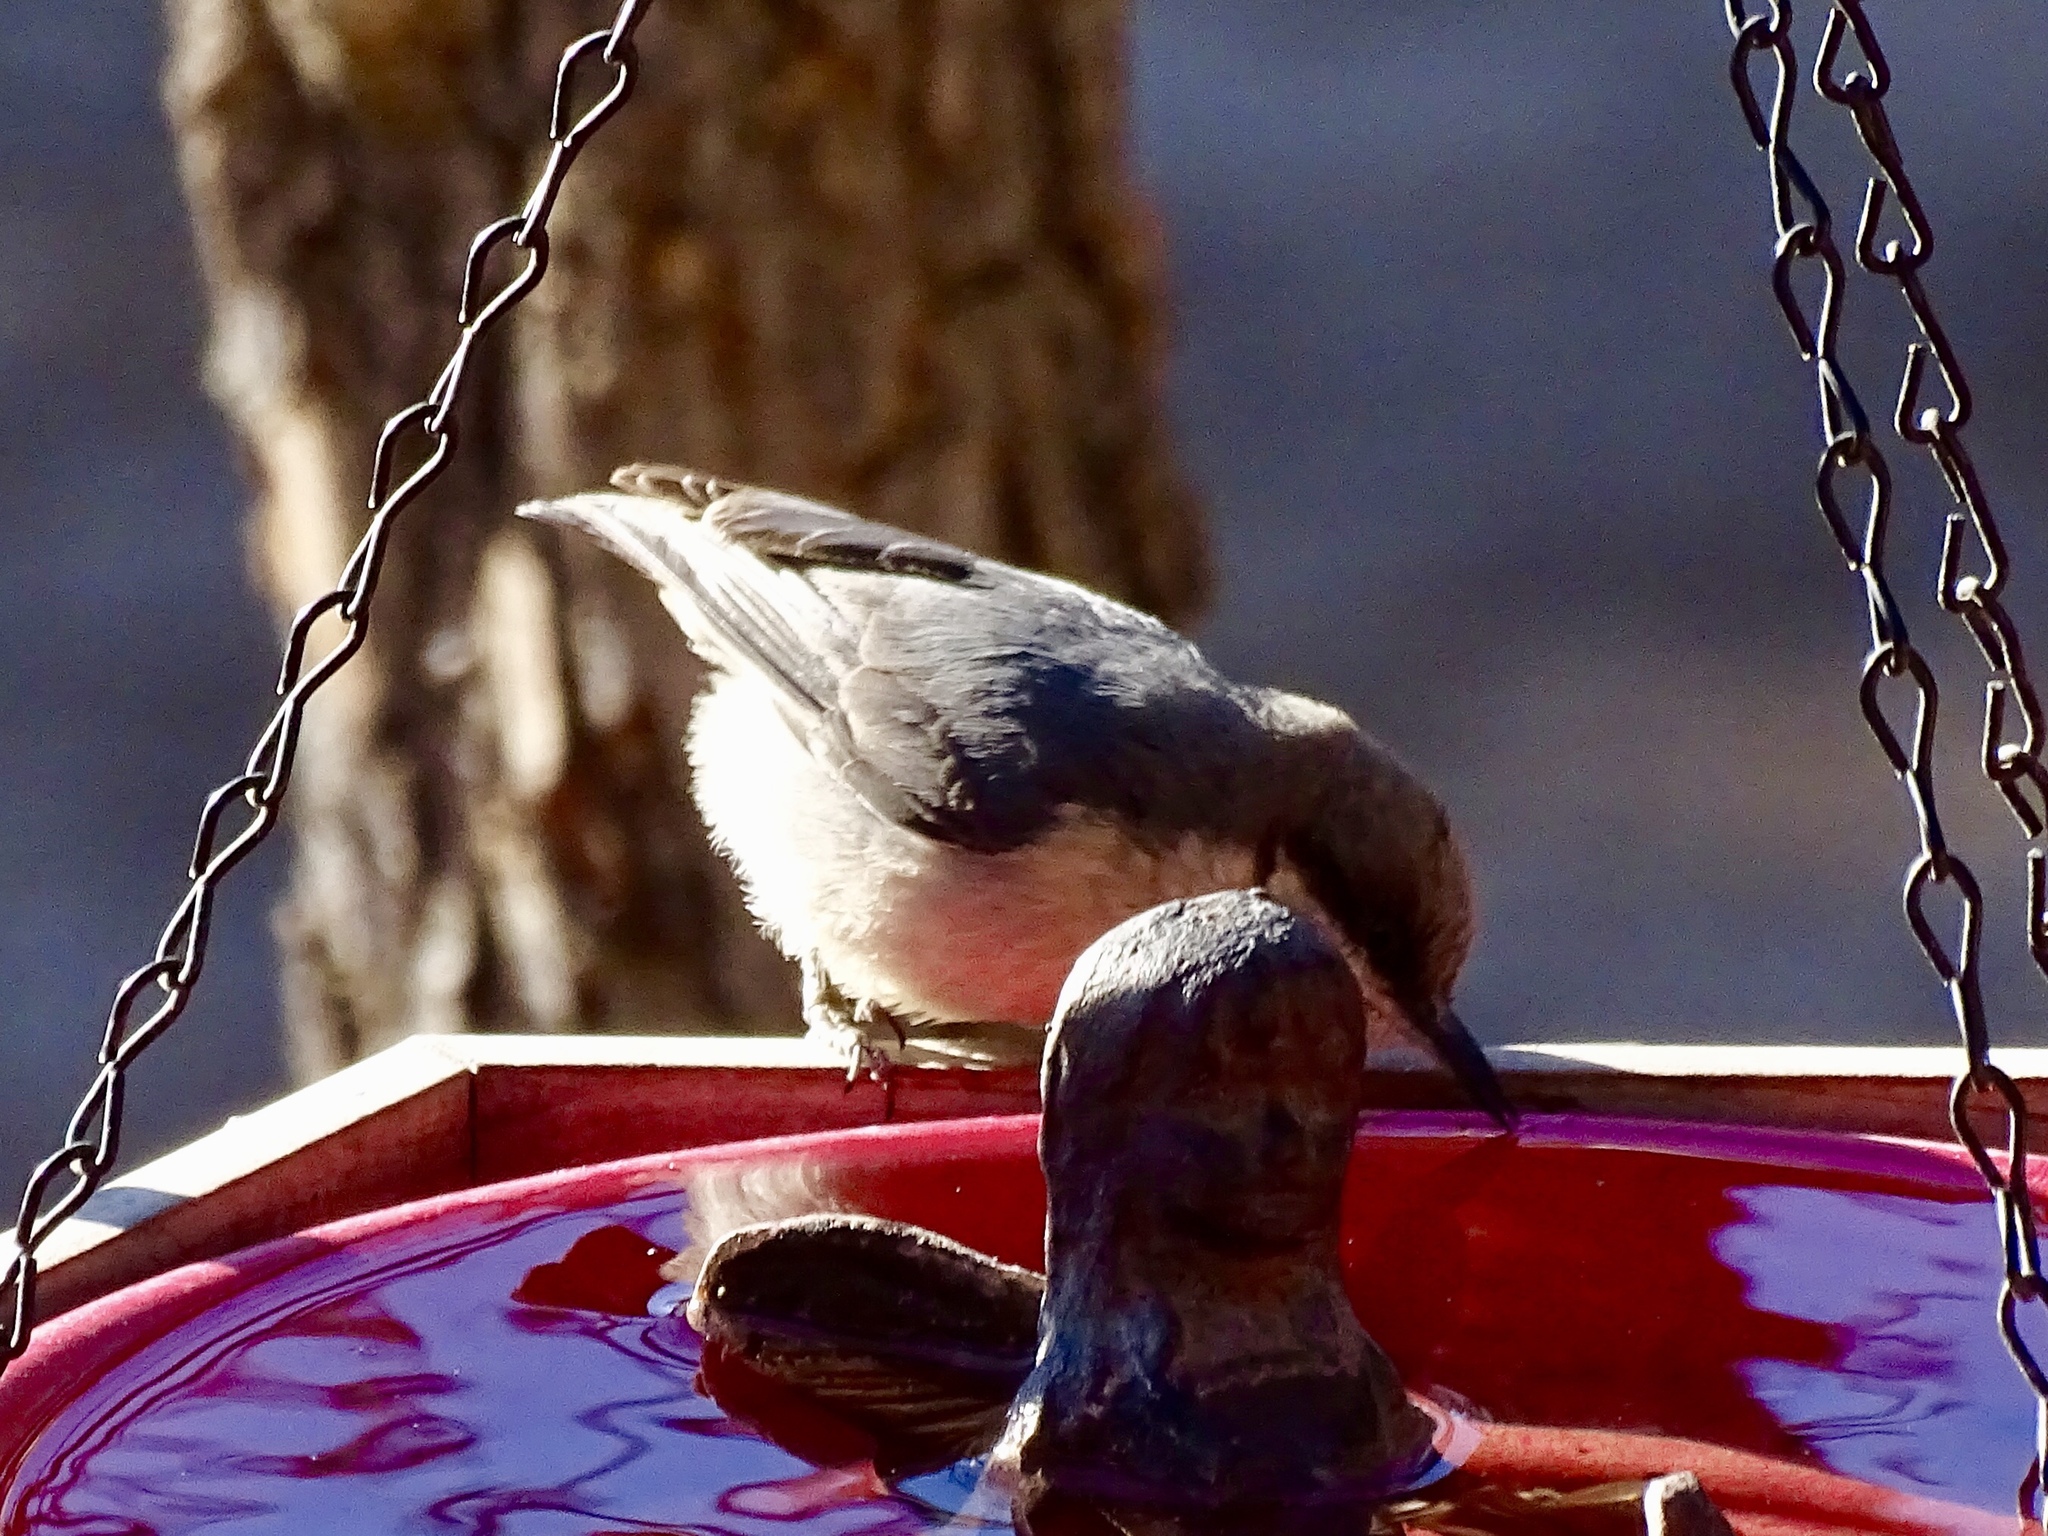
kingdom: Animalia
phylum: Chordata
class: Aves
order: Passeriformes
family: Sittidae
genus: Sitta
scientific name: Sitta pygmaea
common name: Pygmy nuthatch
